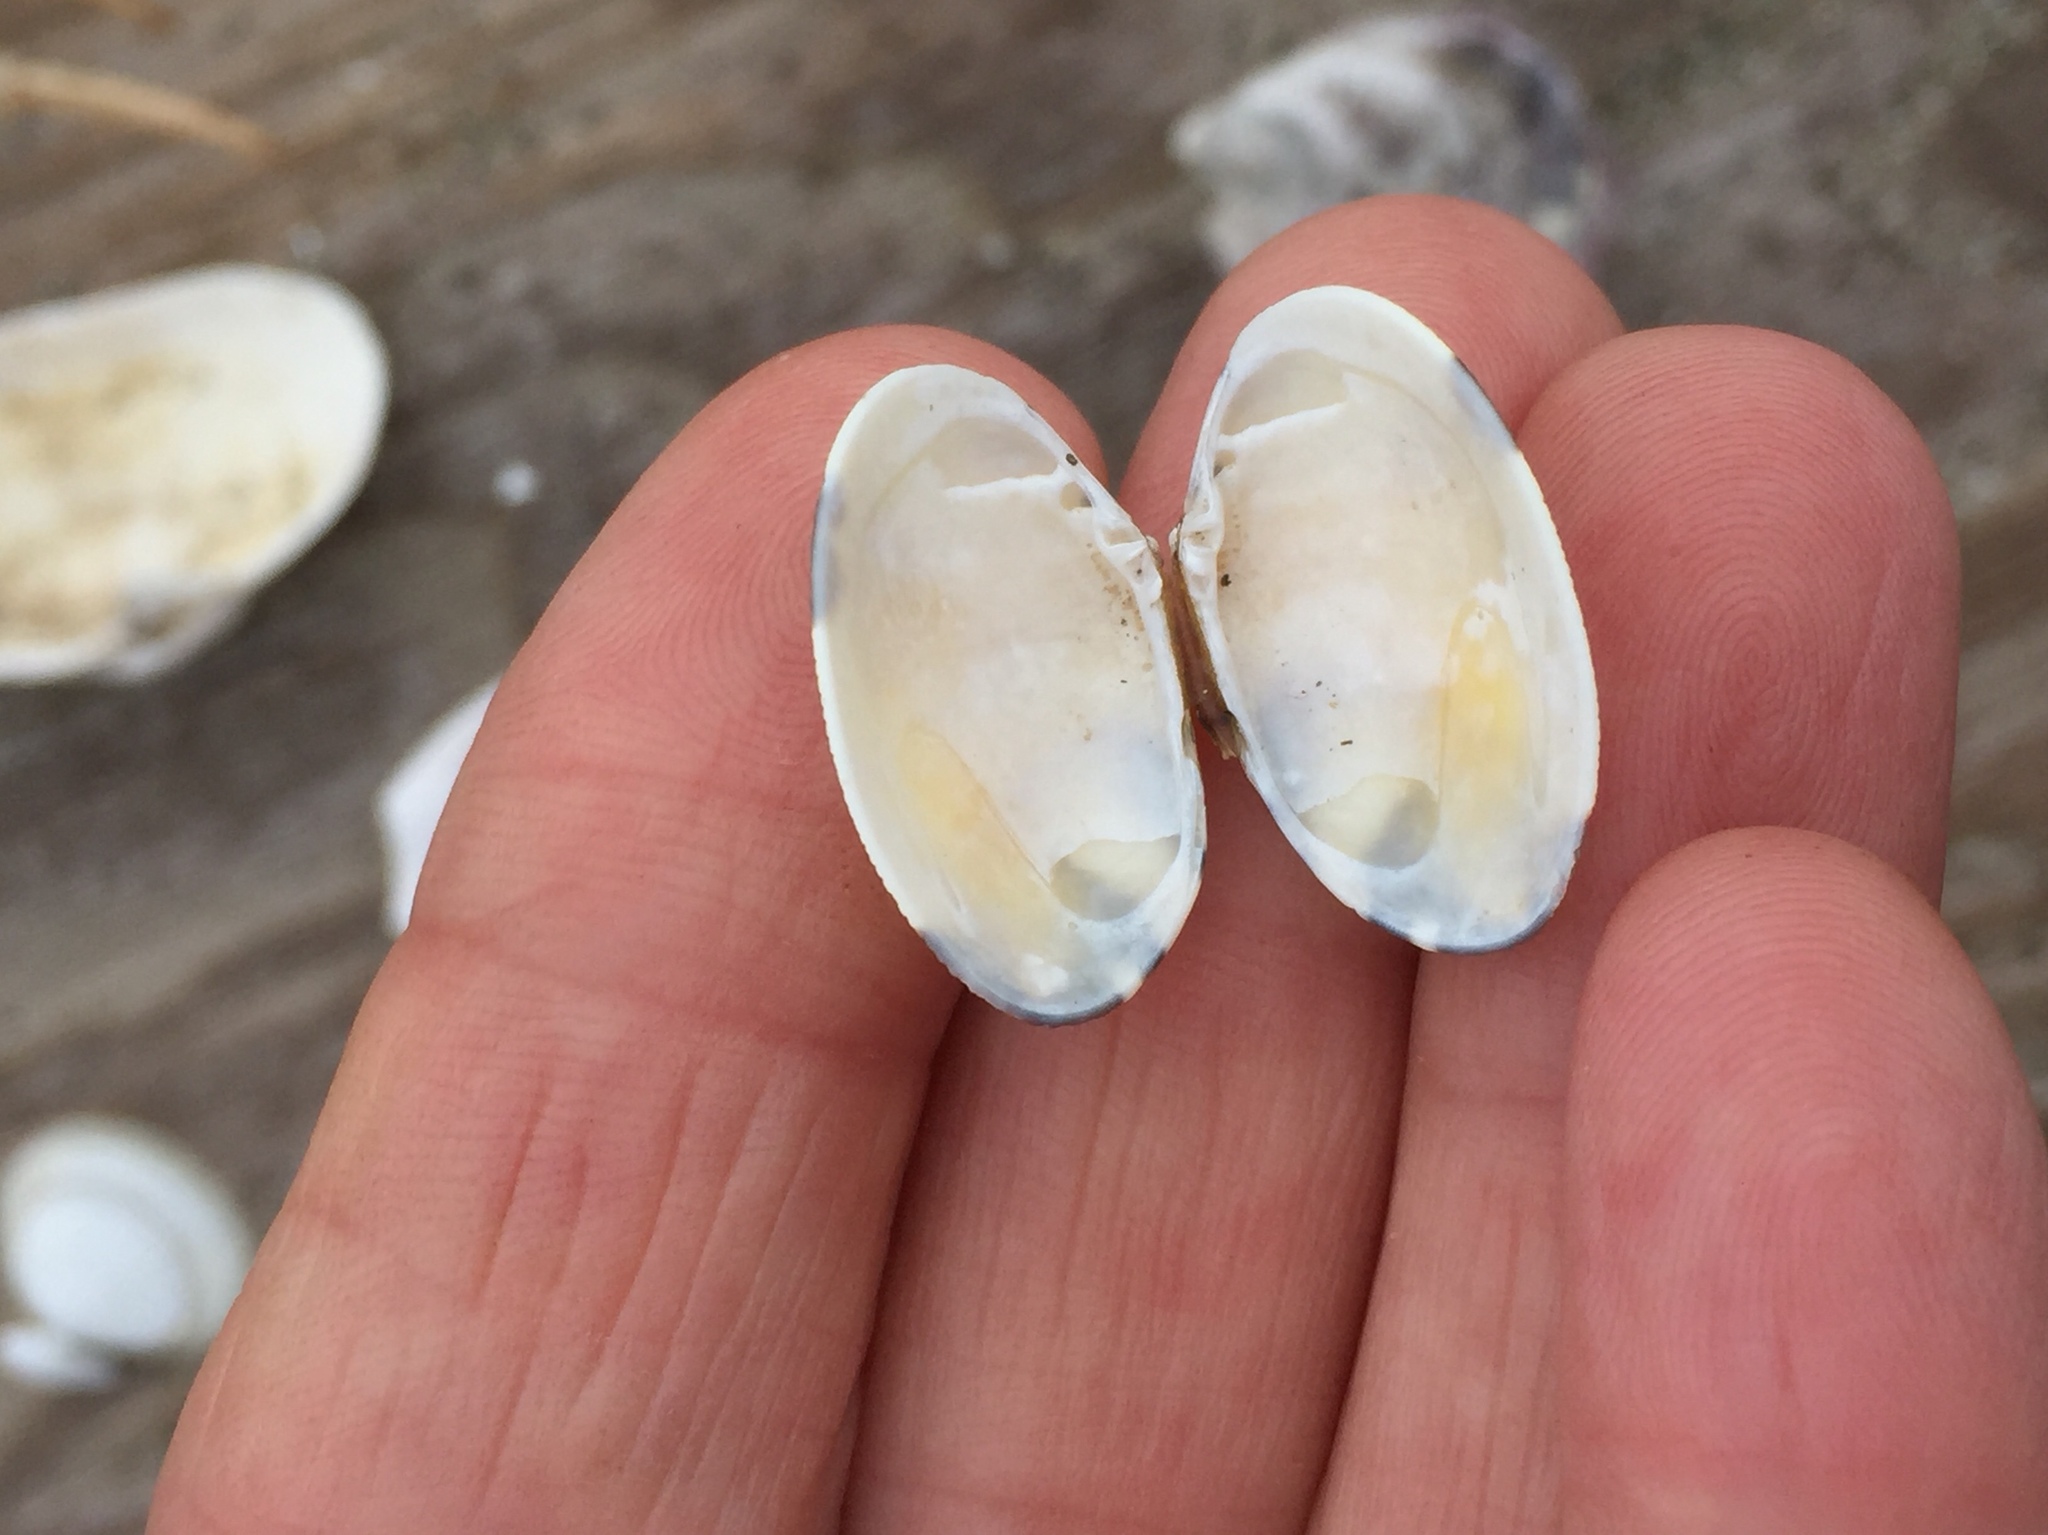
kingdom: Animalia
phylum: Mollusca
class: Bivalvia
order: Venerida
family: Veneridae
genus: Ruditapes
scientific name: Ruditapes philippinarum
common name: Manila clam
